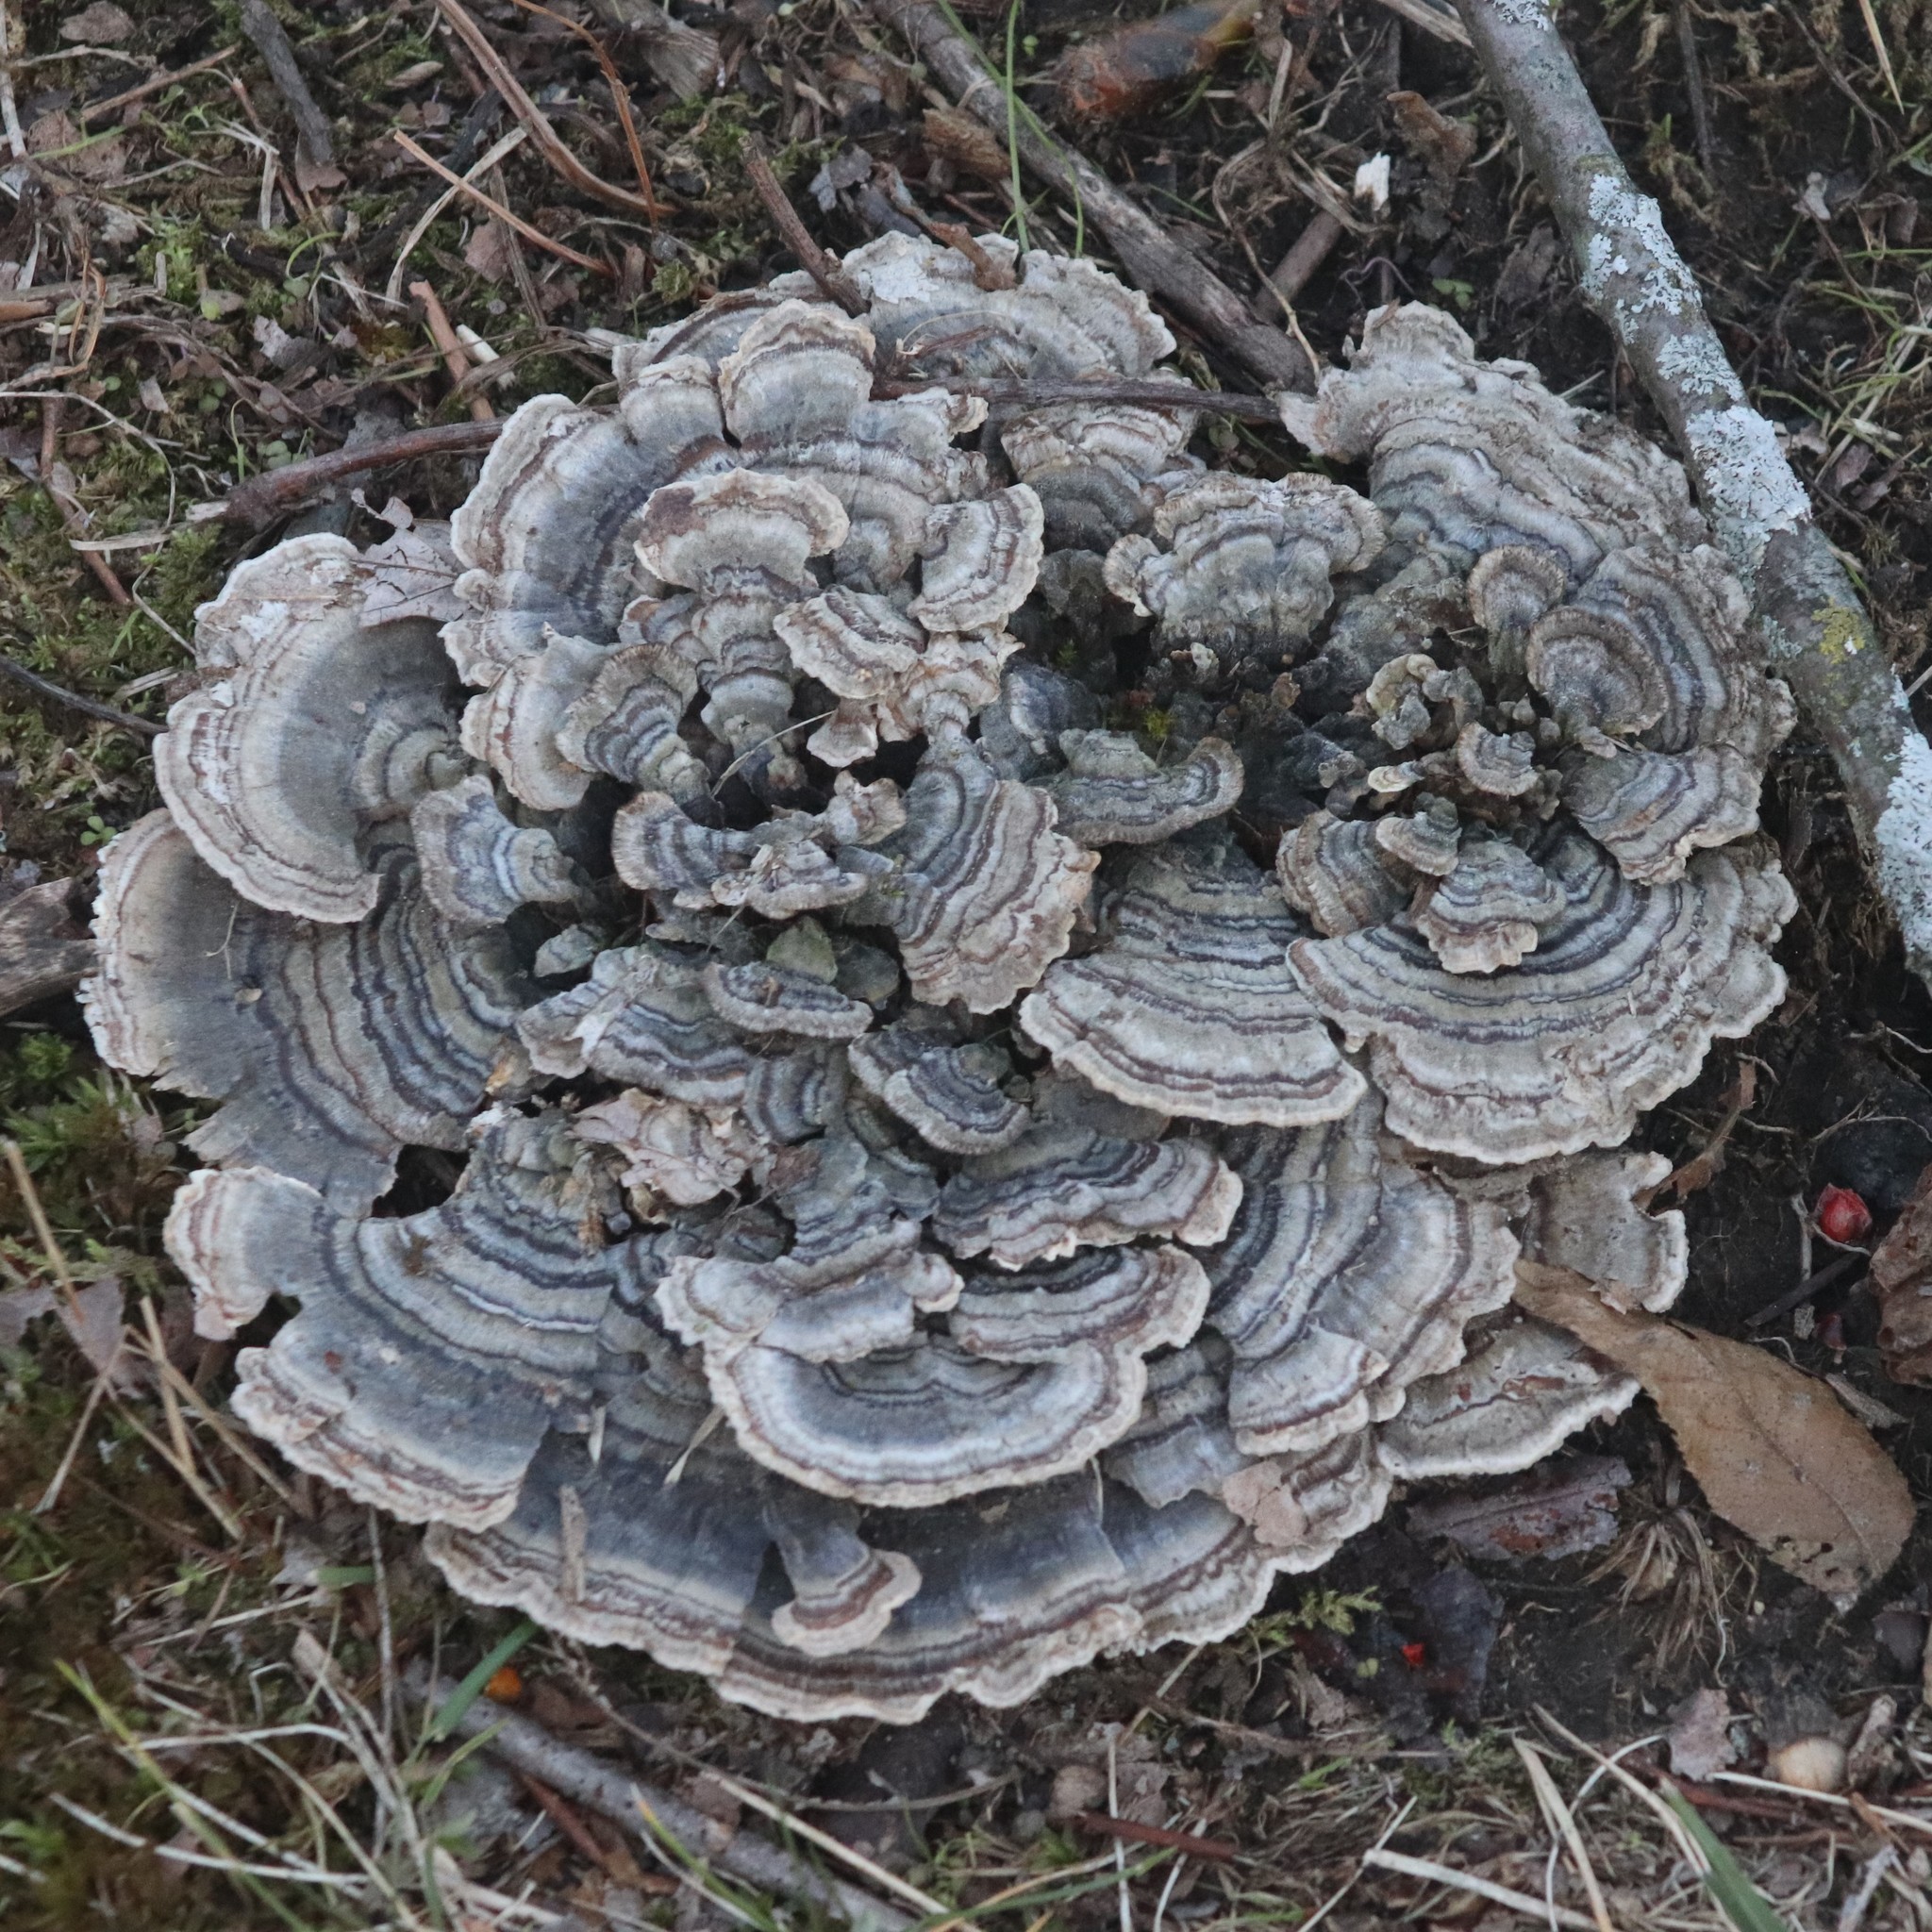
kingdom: Fungi
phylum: Basidiomycota
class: Agaricomycetes
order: Polyporales
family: Polyporaceae
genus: Trametes
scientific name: Trametes versicolor
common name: Turkeytail
